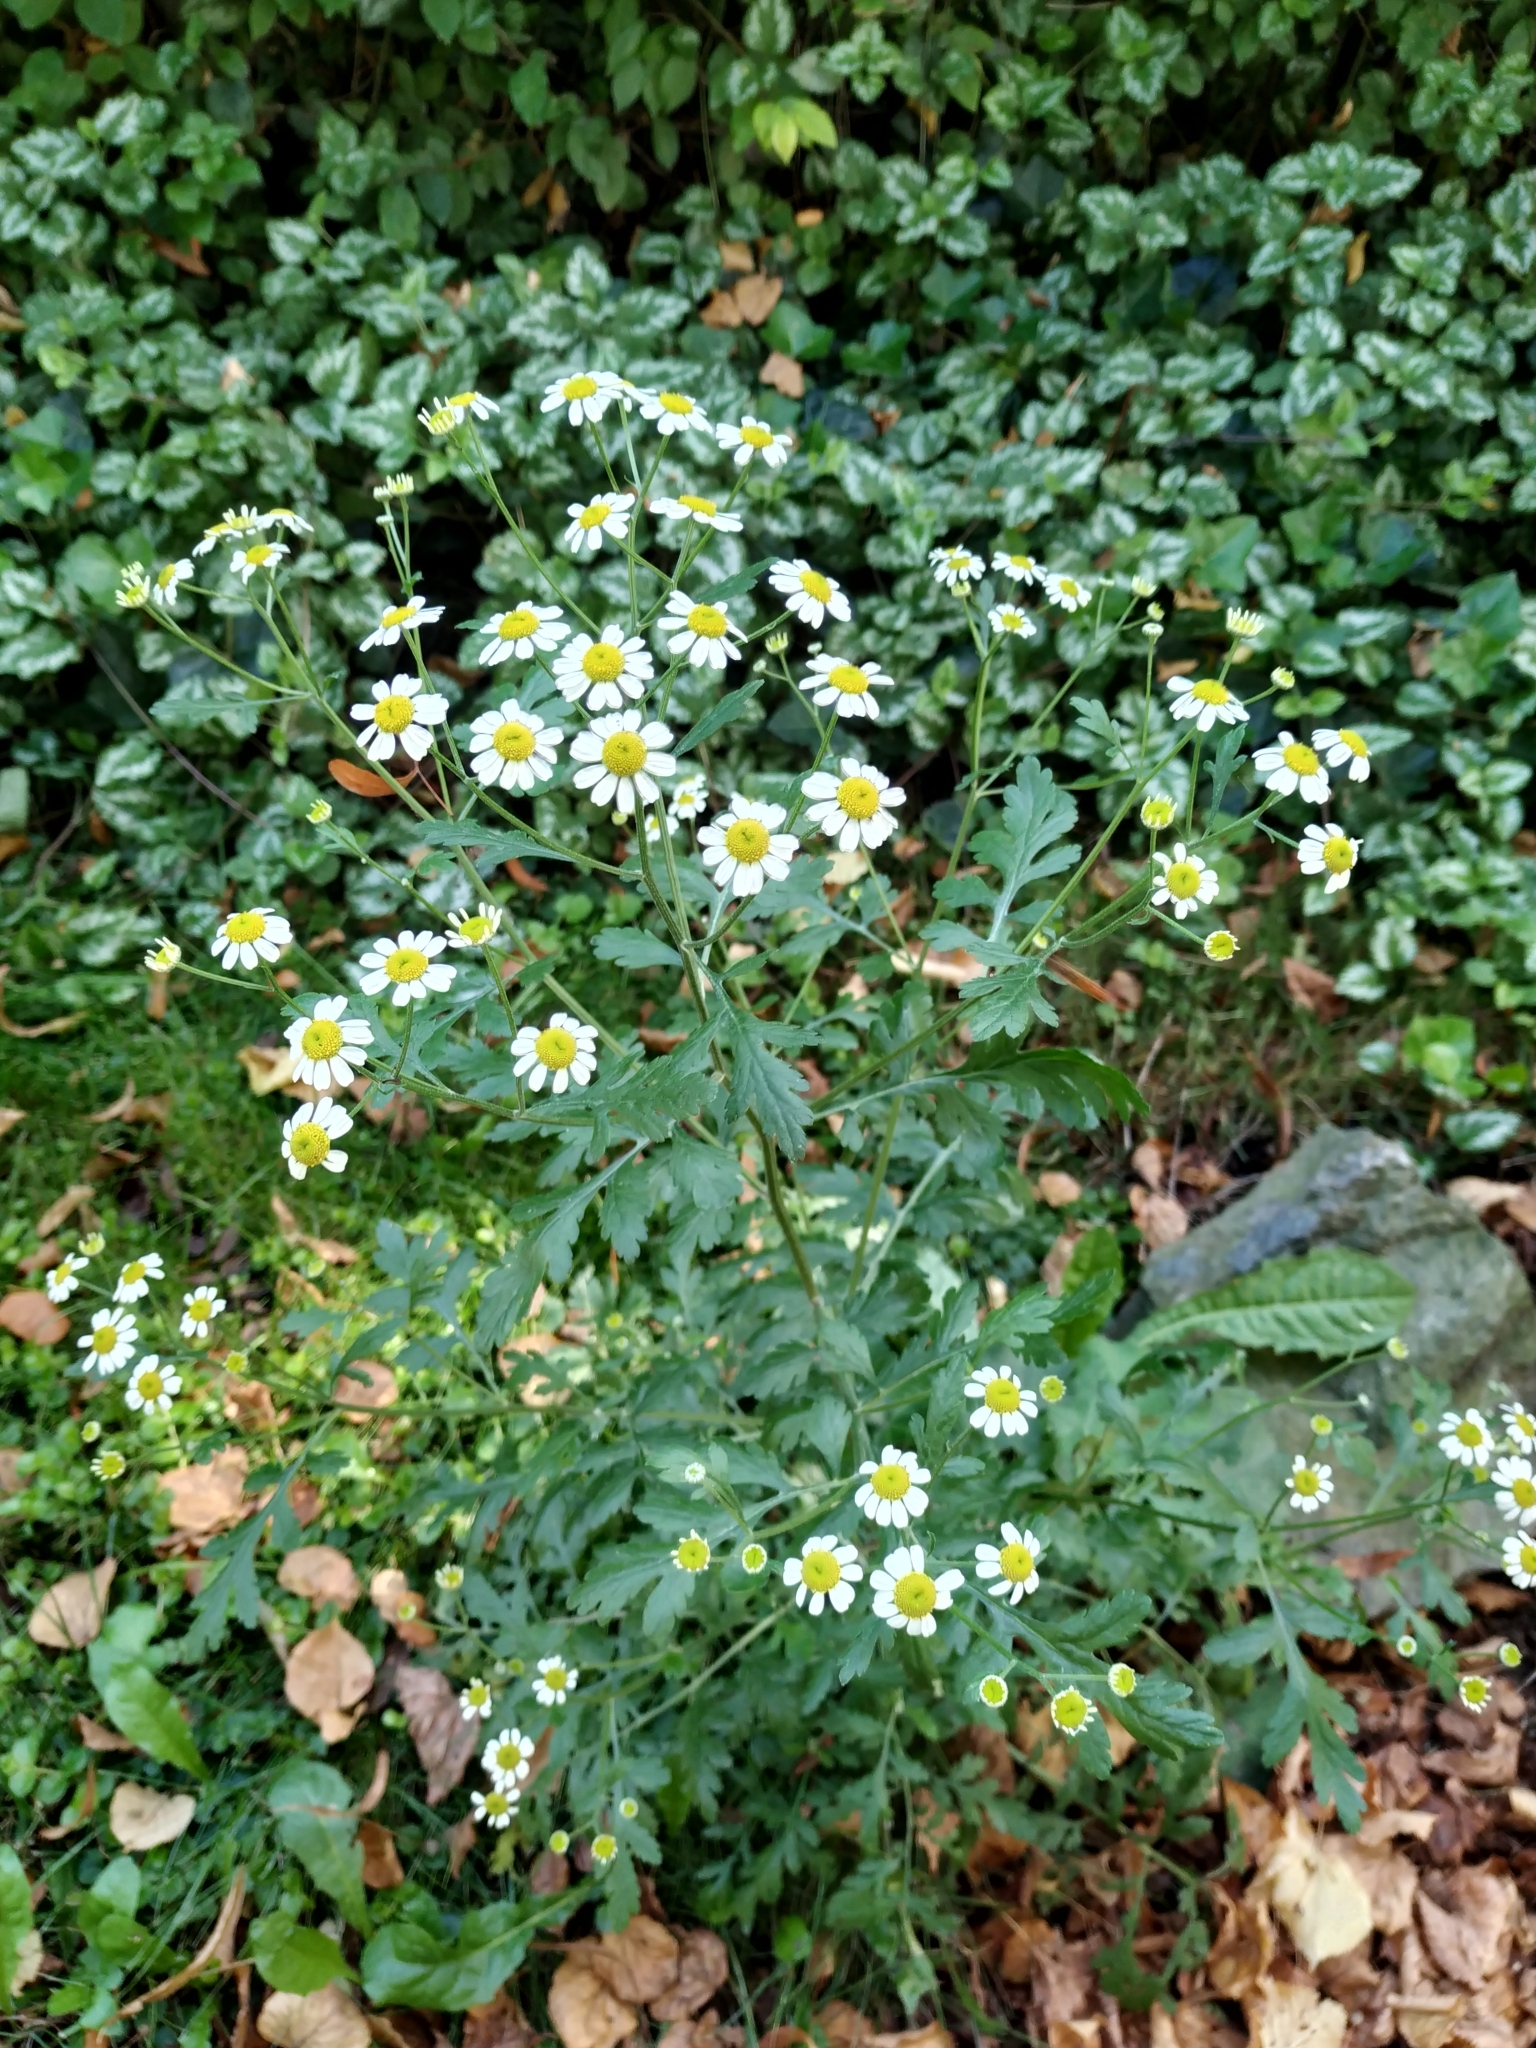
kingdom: Plantae
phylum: Tracheophyta
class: Magnoliopsida
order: Asterales
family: Asteraceae
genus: Tanacetum
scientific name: Tanacetum parthenium
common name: Feverfew
